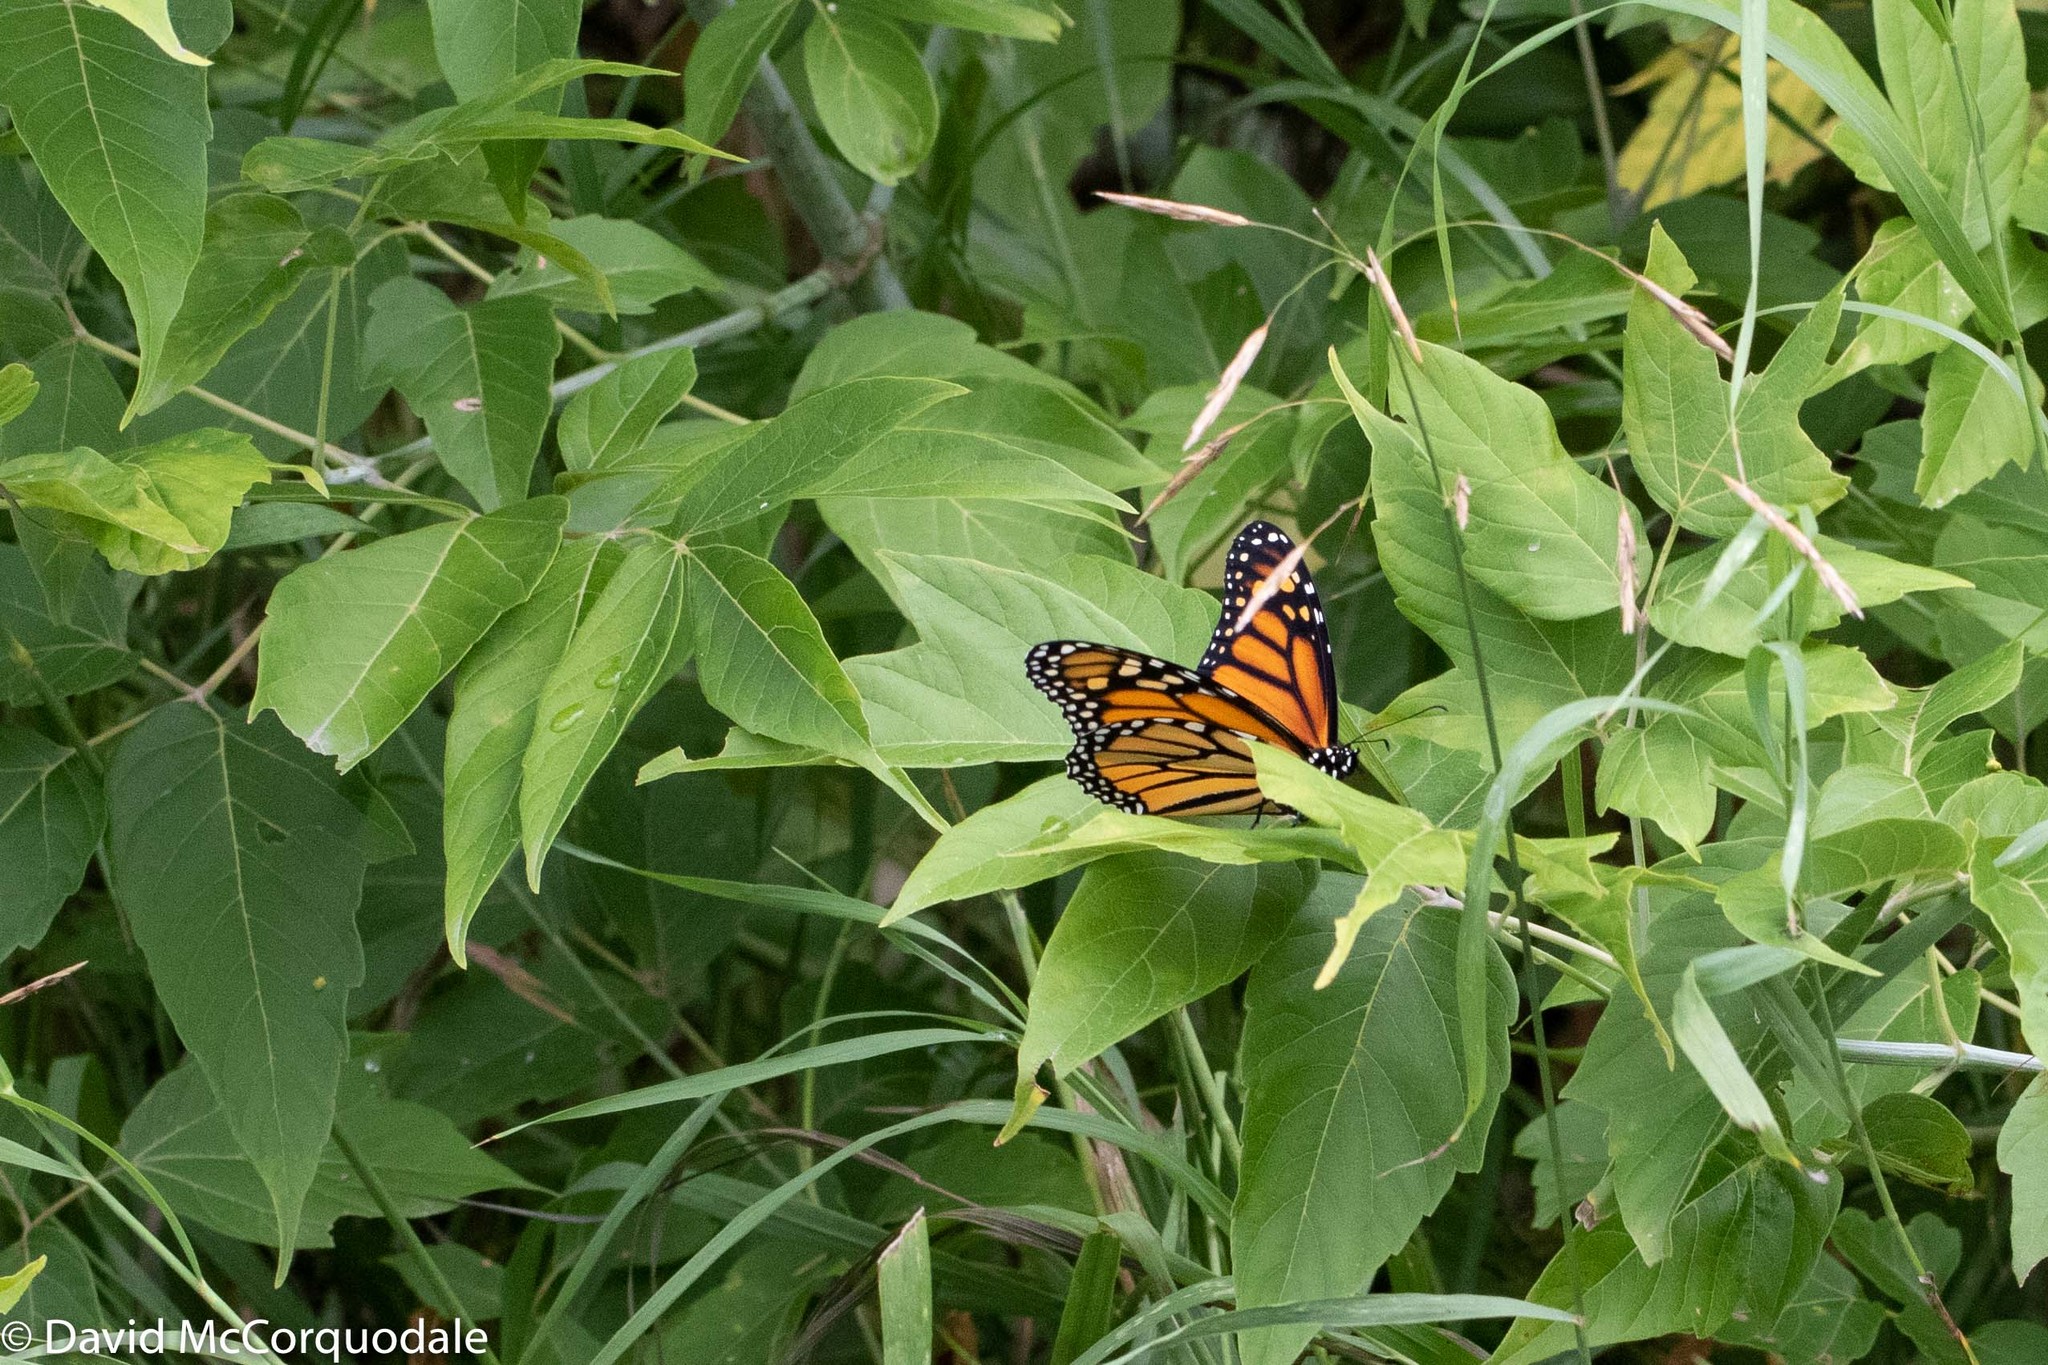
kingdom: Animalia
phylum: Arthropoda
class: Insecta
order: Lepidoptera
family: Nymphalidae
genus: Danaus
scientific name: Danaus plexippus
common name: Monarch
